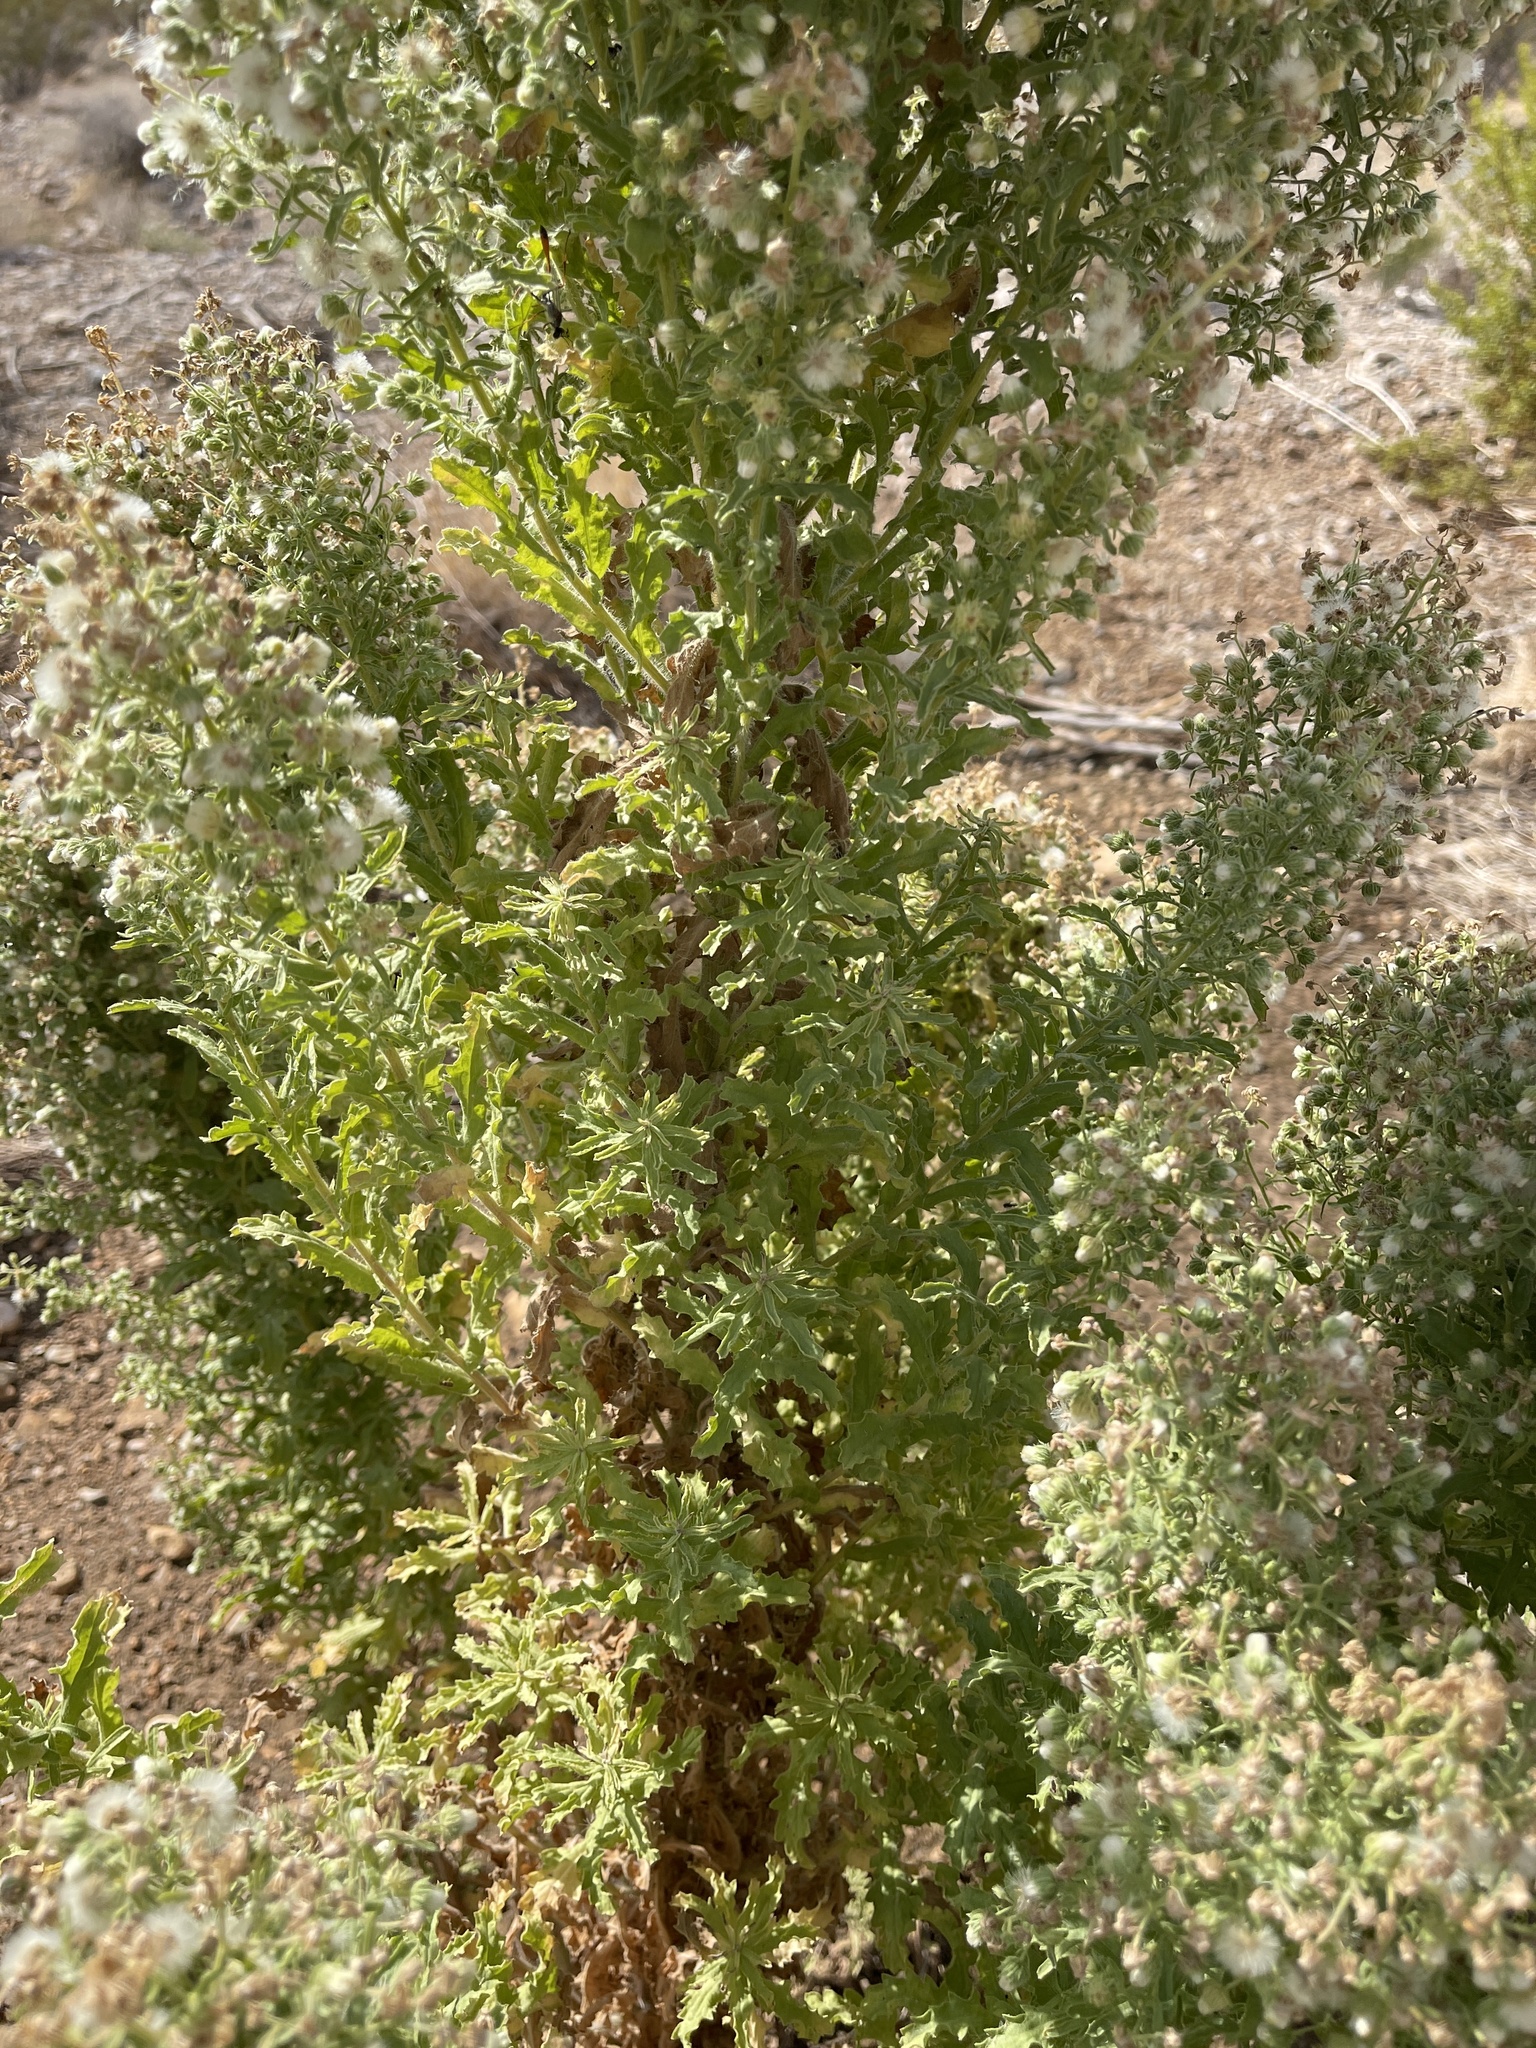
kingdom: Plantae
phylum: Tracheophyta
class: Magnoliopsida
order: Asterales
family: Asteraceae
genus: Laennecia
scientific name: Laennecia coulteri
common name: Coulter's woolwort
